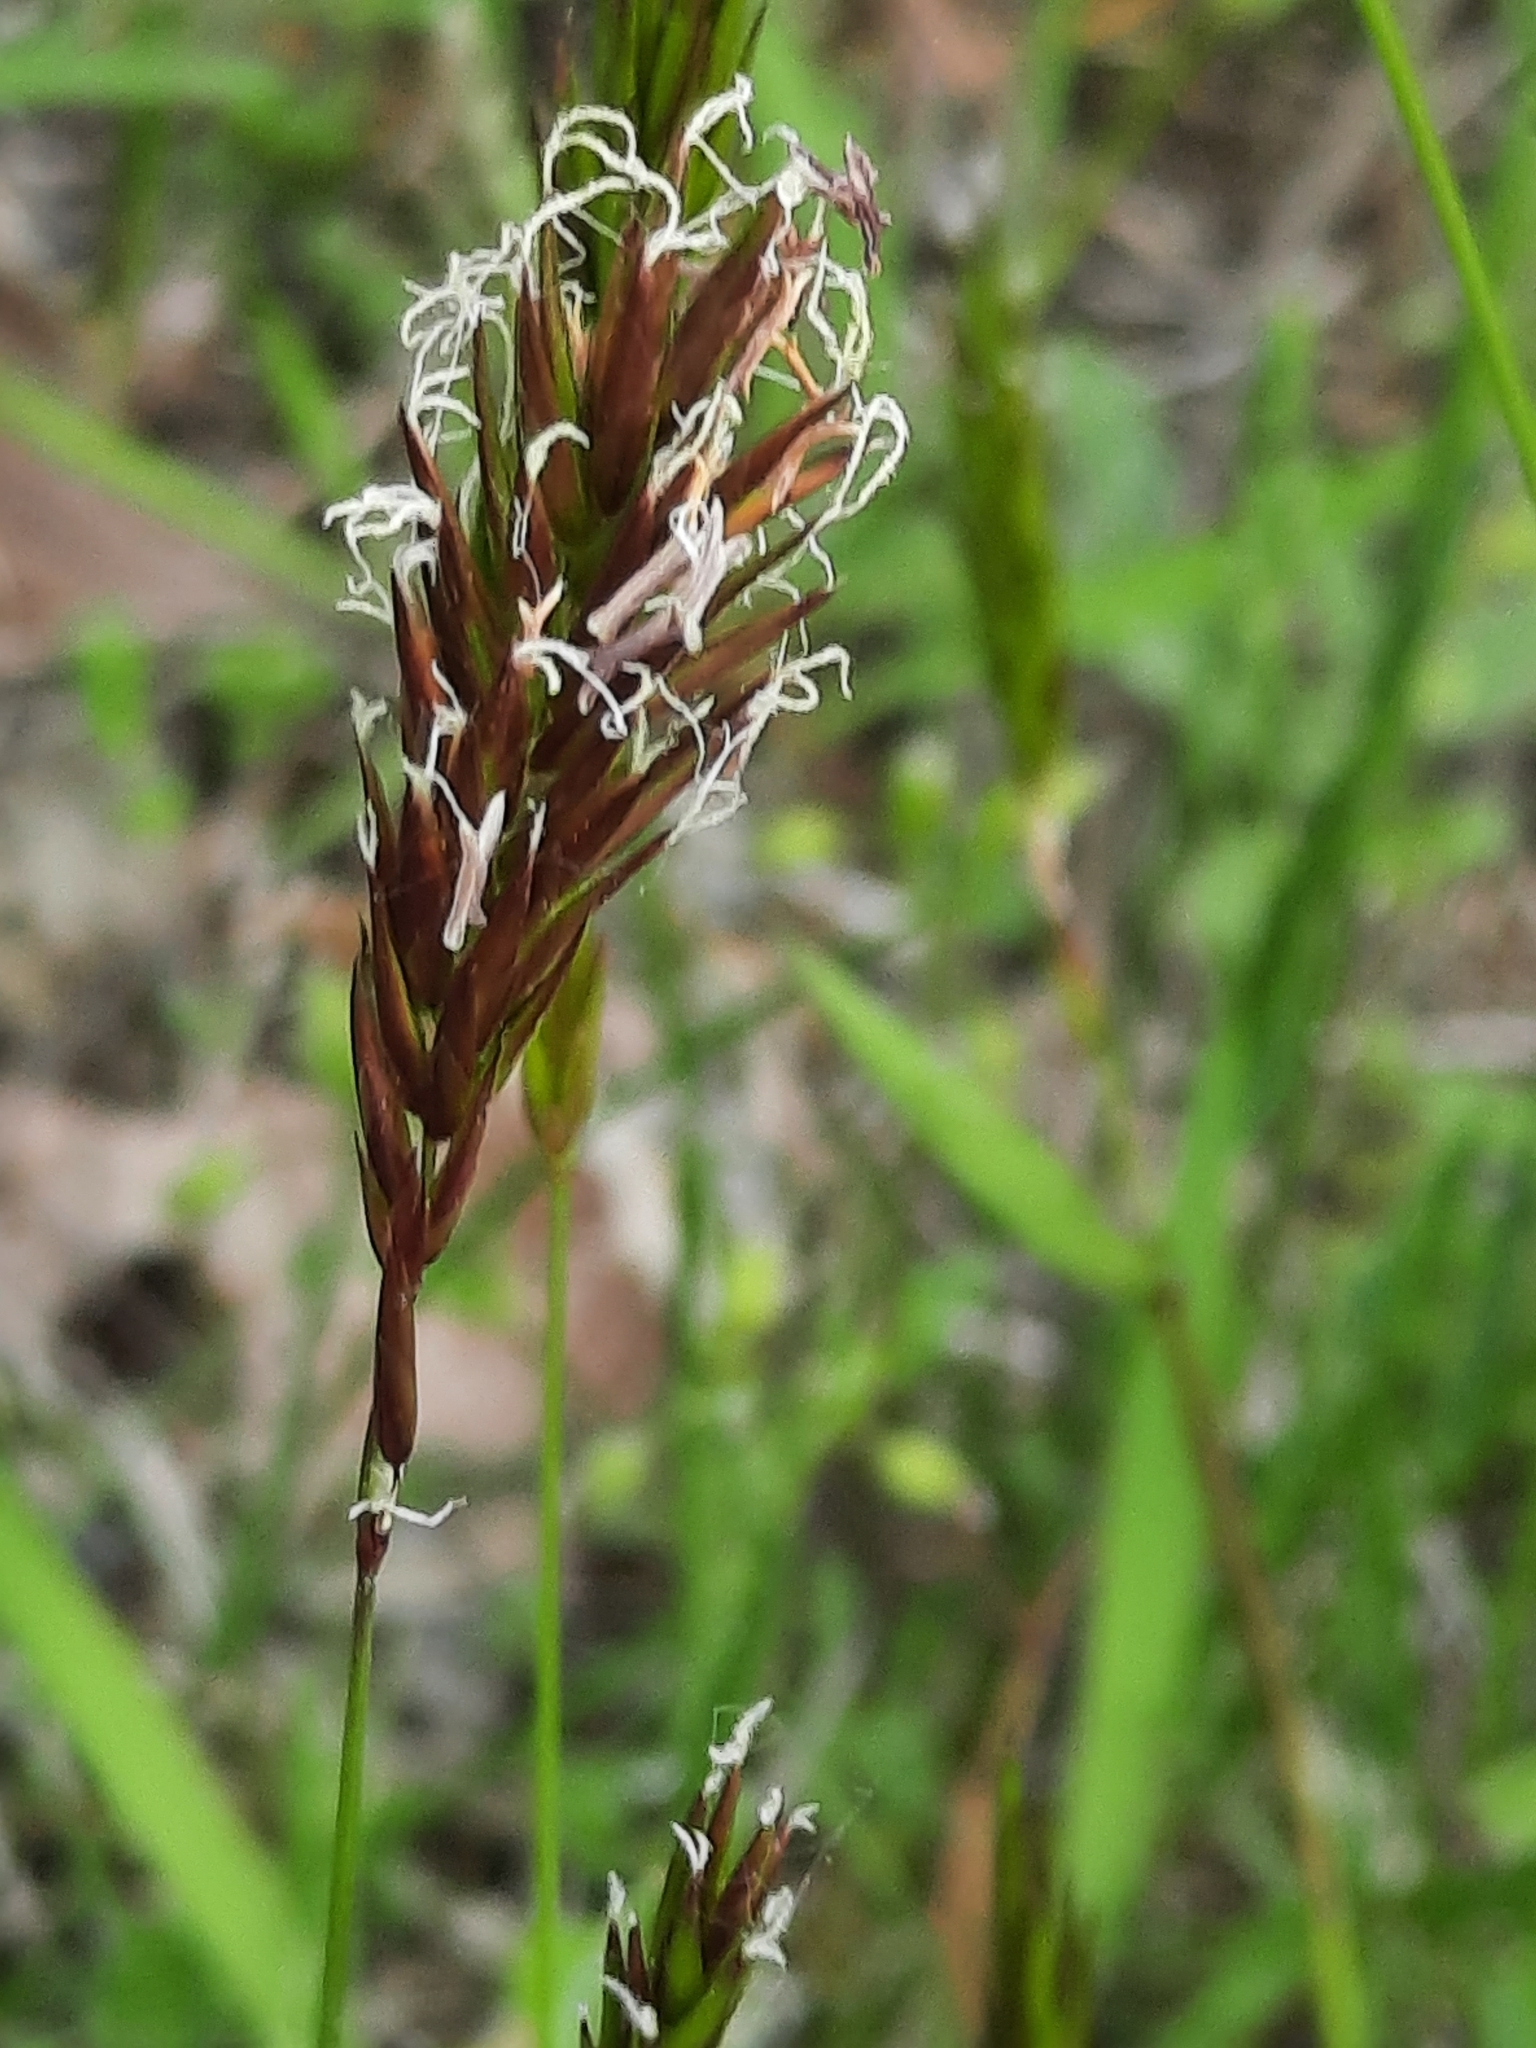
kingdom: Plantae
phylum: Tracheophyta
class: Liliopsida
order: Poales
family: Poaceae
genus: Anthoxanthum
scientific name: Anthoxanthum odoratum
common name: Sweet vernalgrass
